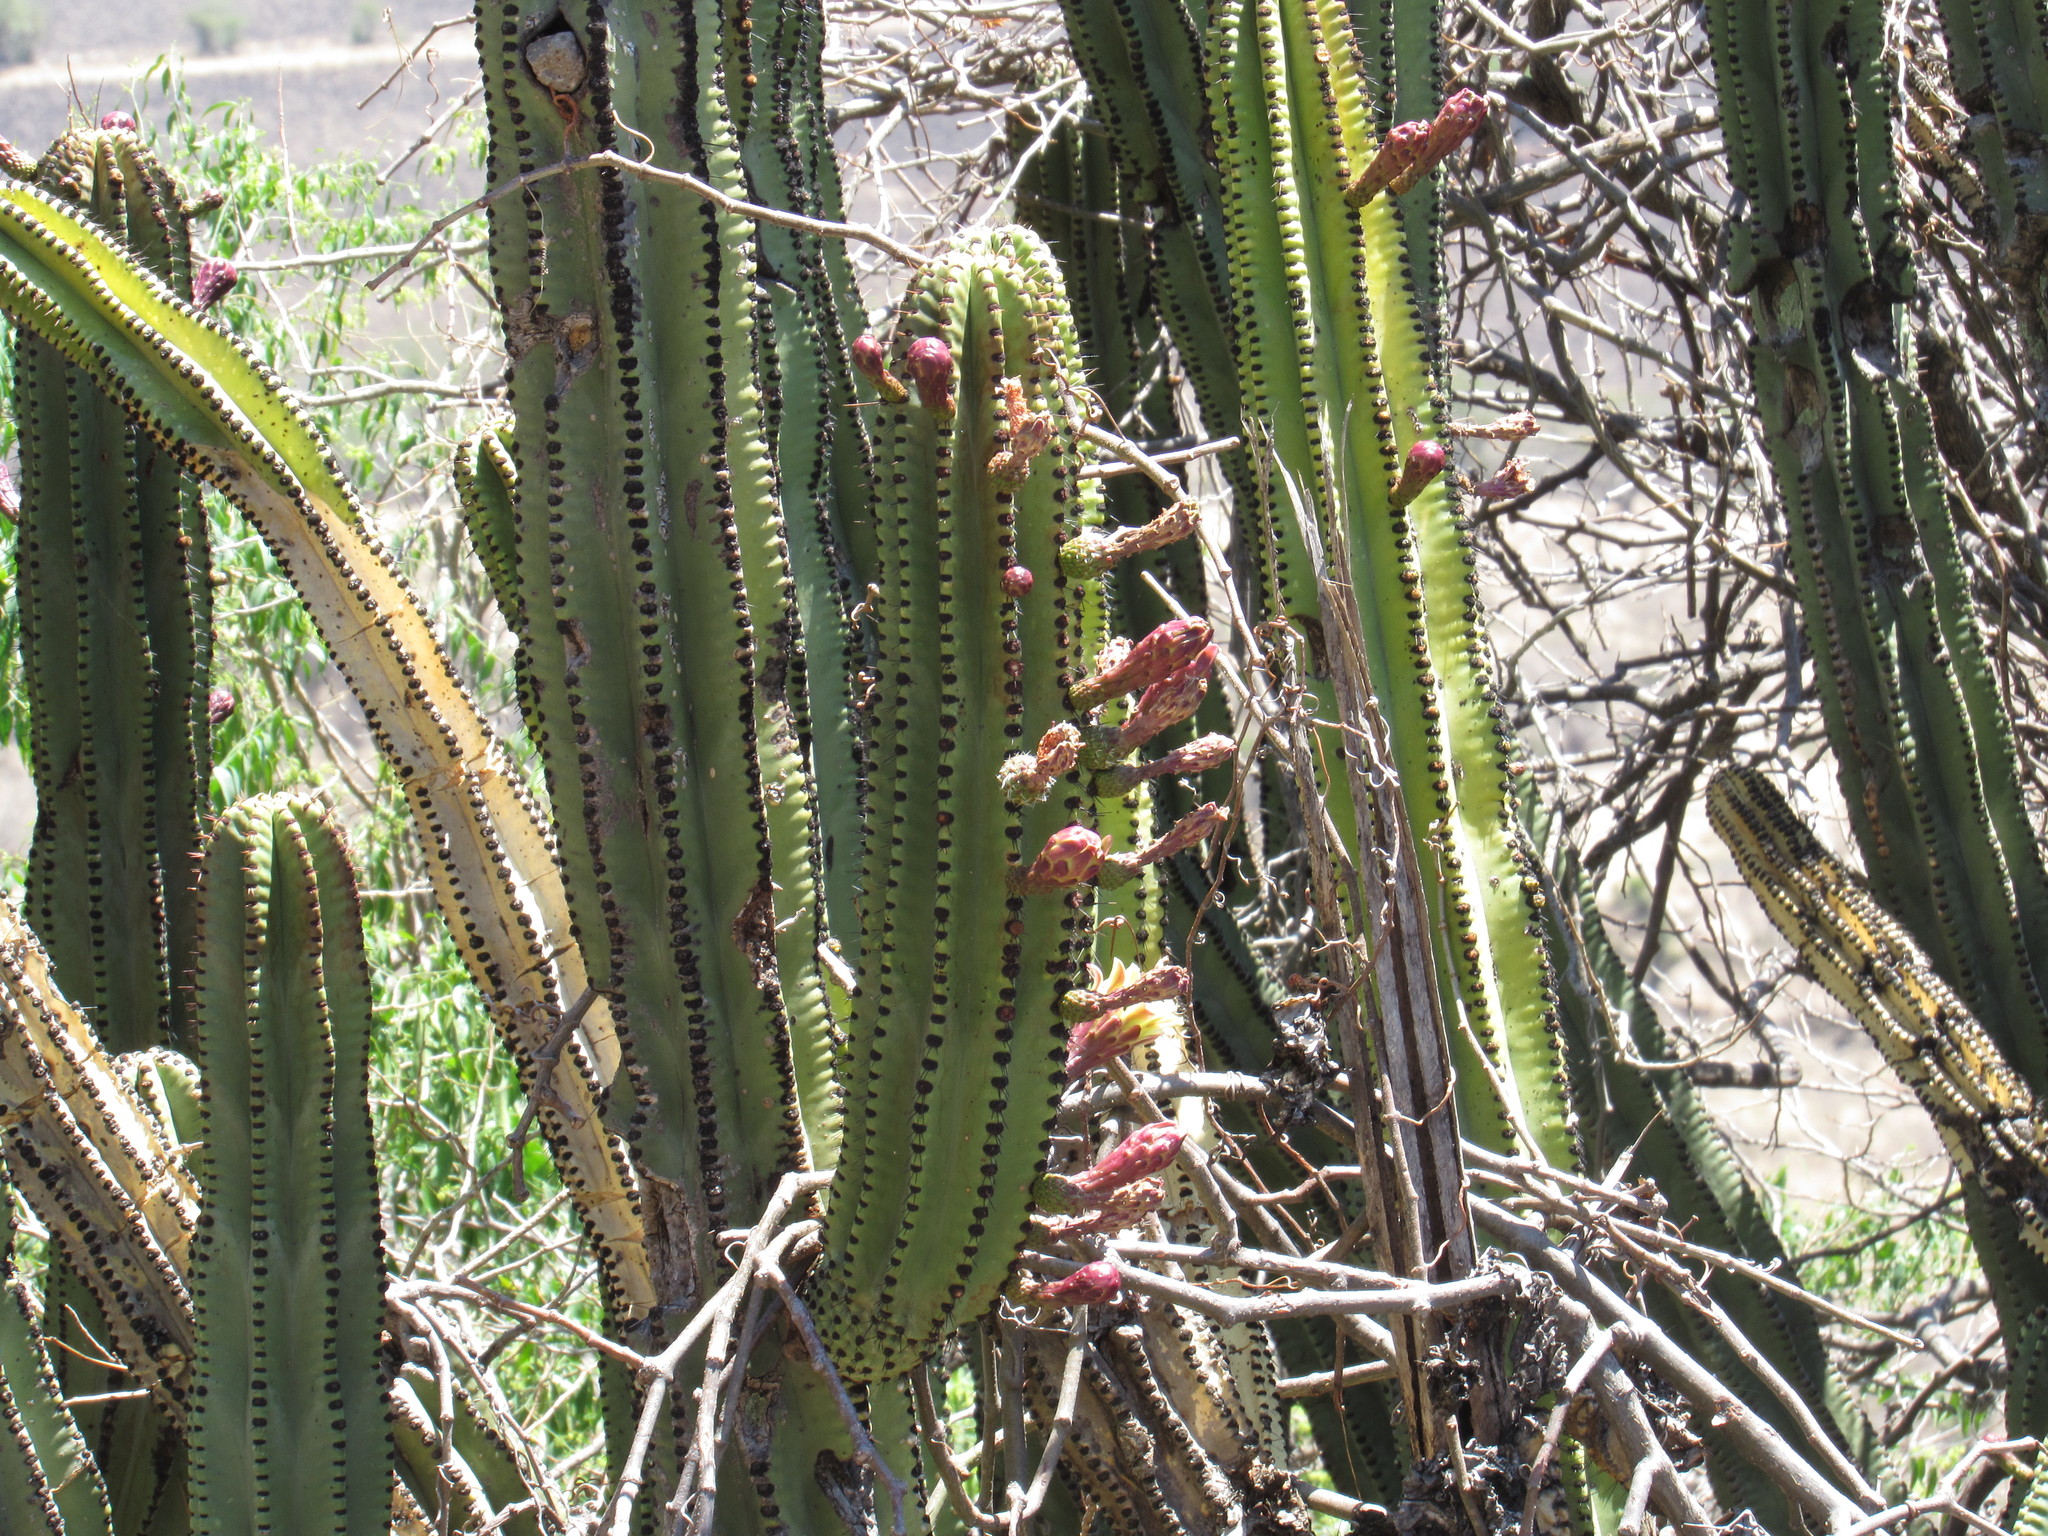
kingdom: Plantae
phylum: Tracheophyta
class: Magnoliopsida
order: Caryophyllales
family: Cactaceae
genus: Stenocereus
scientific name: Stenocereus queretaroensis
